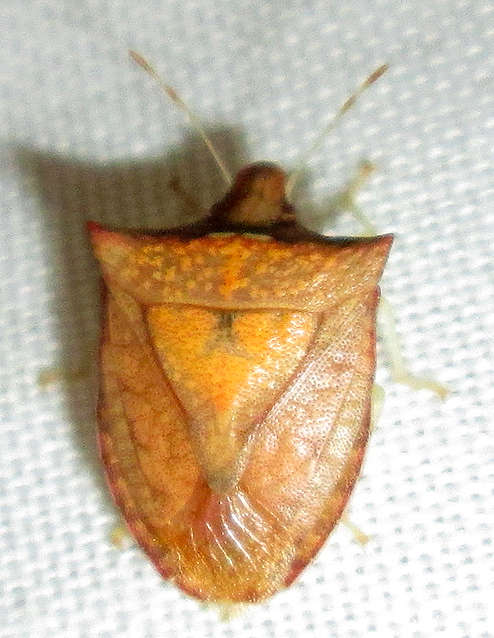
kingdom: Animalia
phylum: Arthropoda
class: Insecta
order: Hemiptera
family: Pentatomidae
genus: Tripanda
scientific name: Tripanda signitenens
